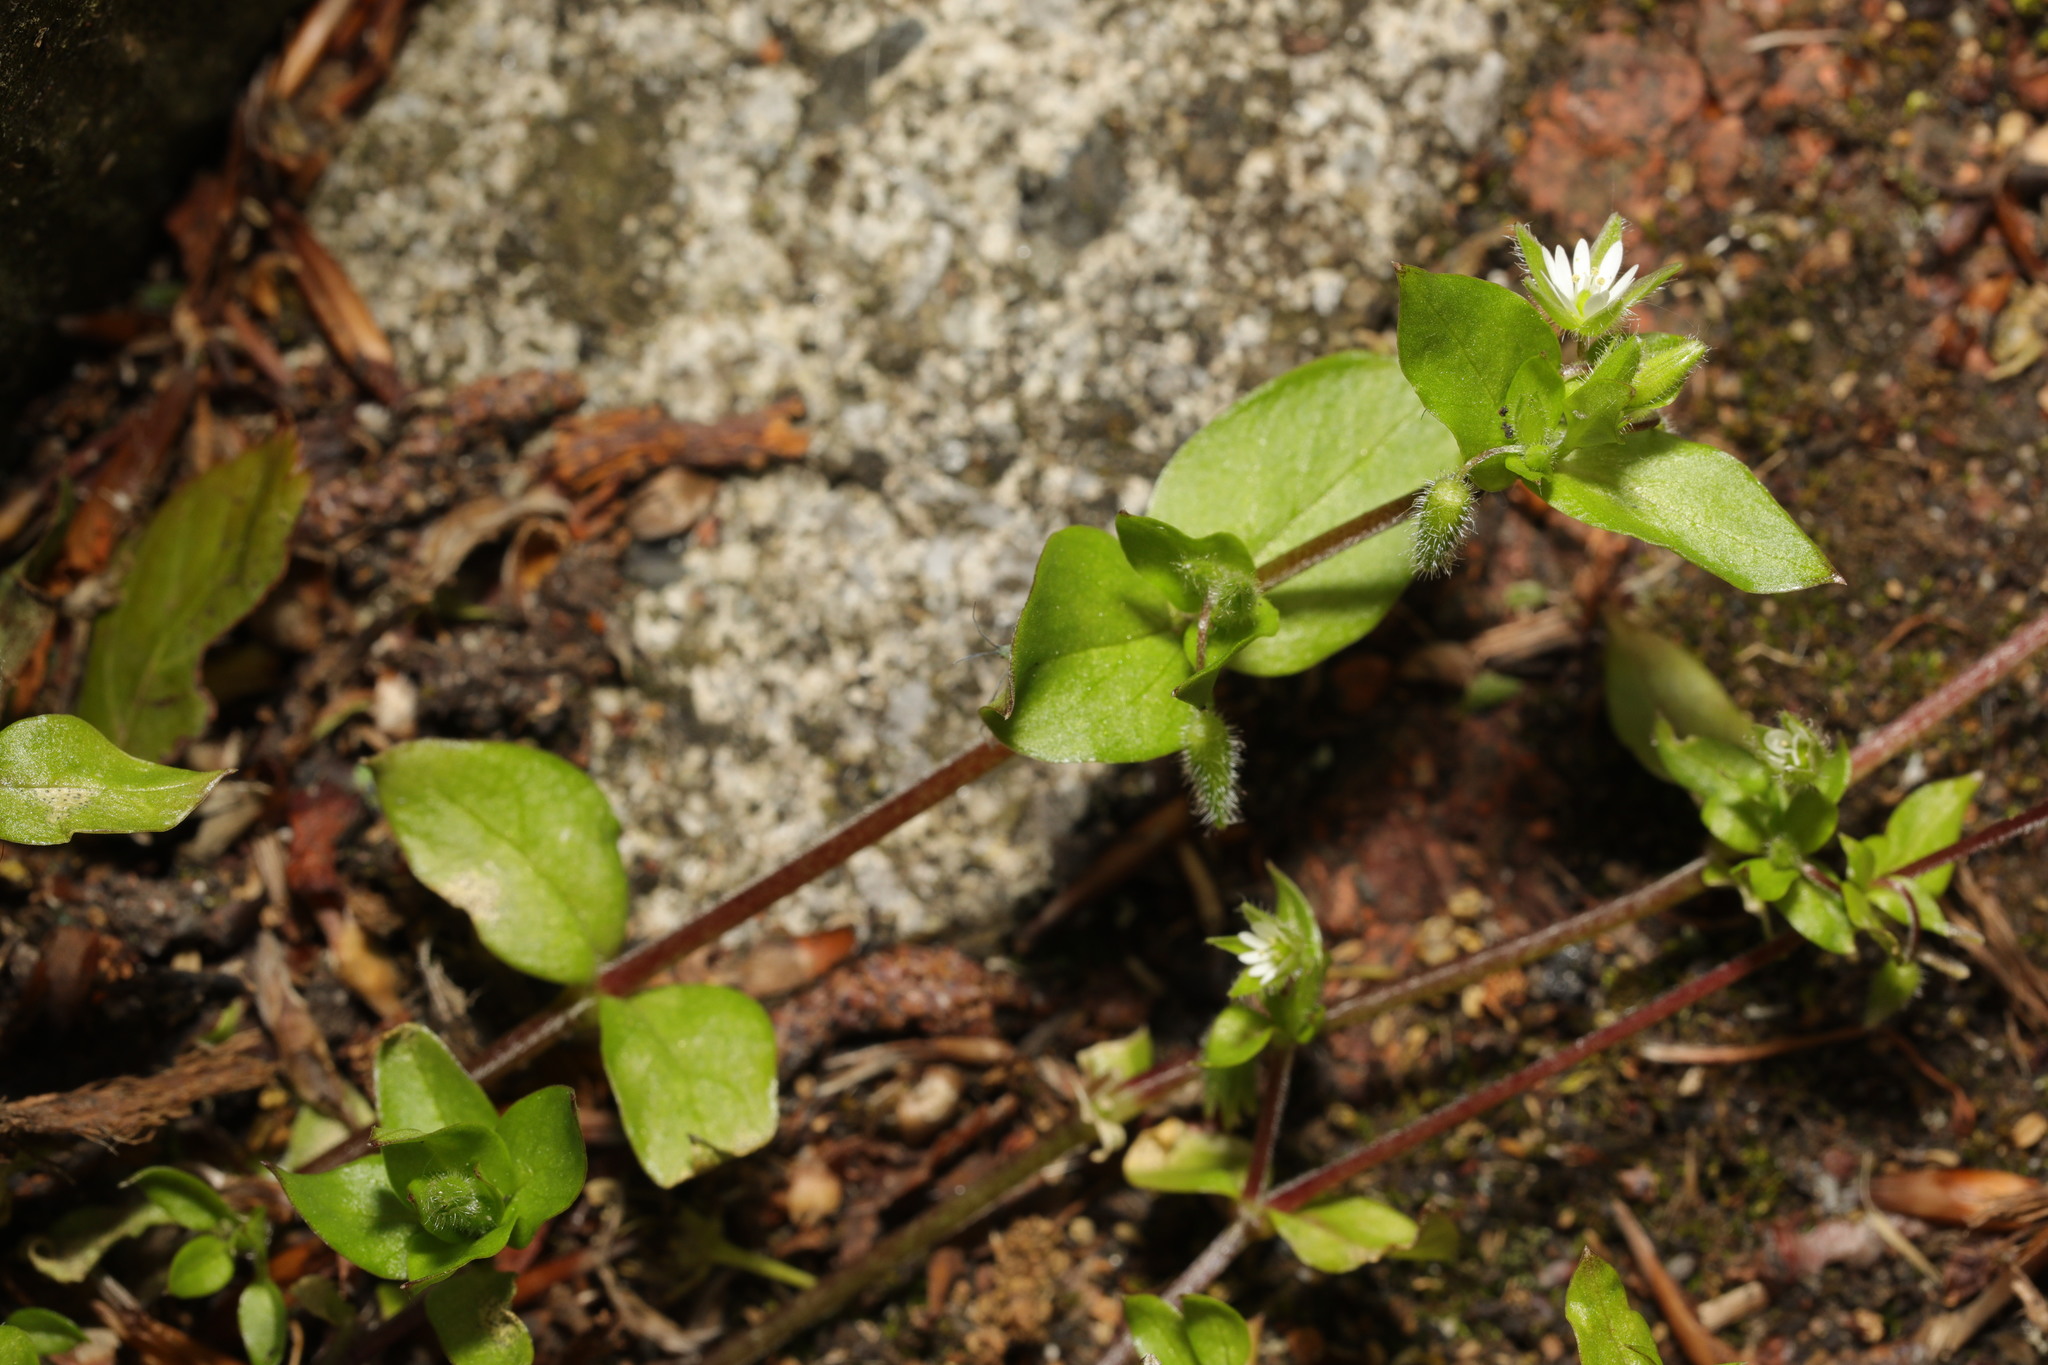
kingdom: Plantae
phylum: Tracheophyta
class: Magnoliopsida
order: Caryophyllales
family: Caryophyllaceae
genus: Stellaria
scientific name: Stellaria media
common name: Common chickweed
